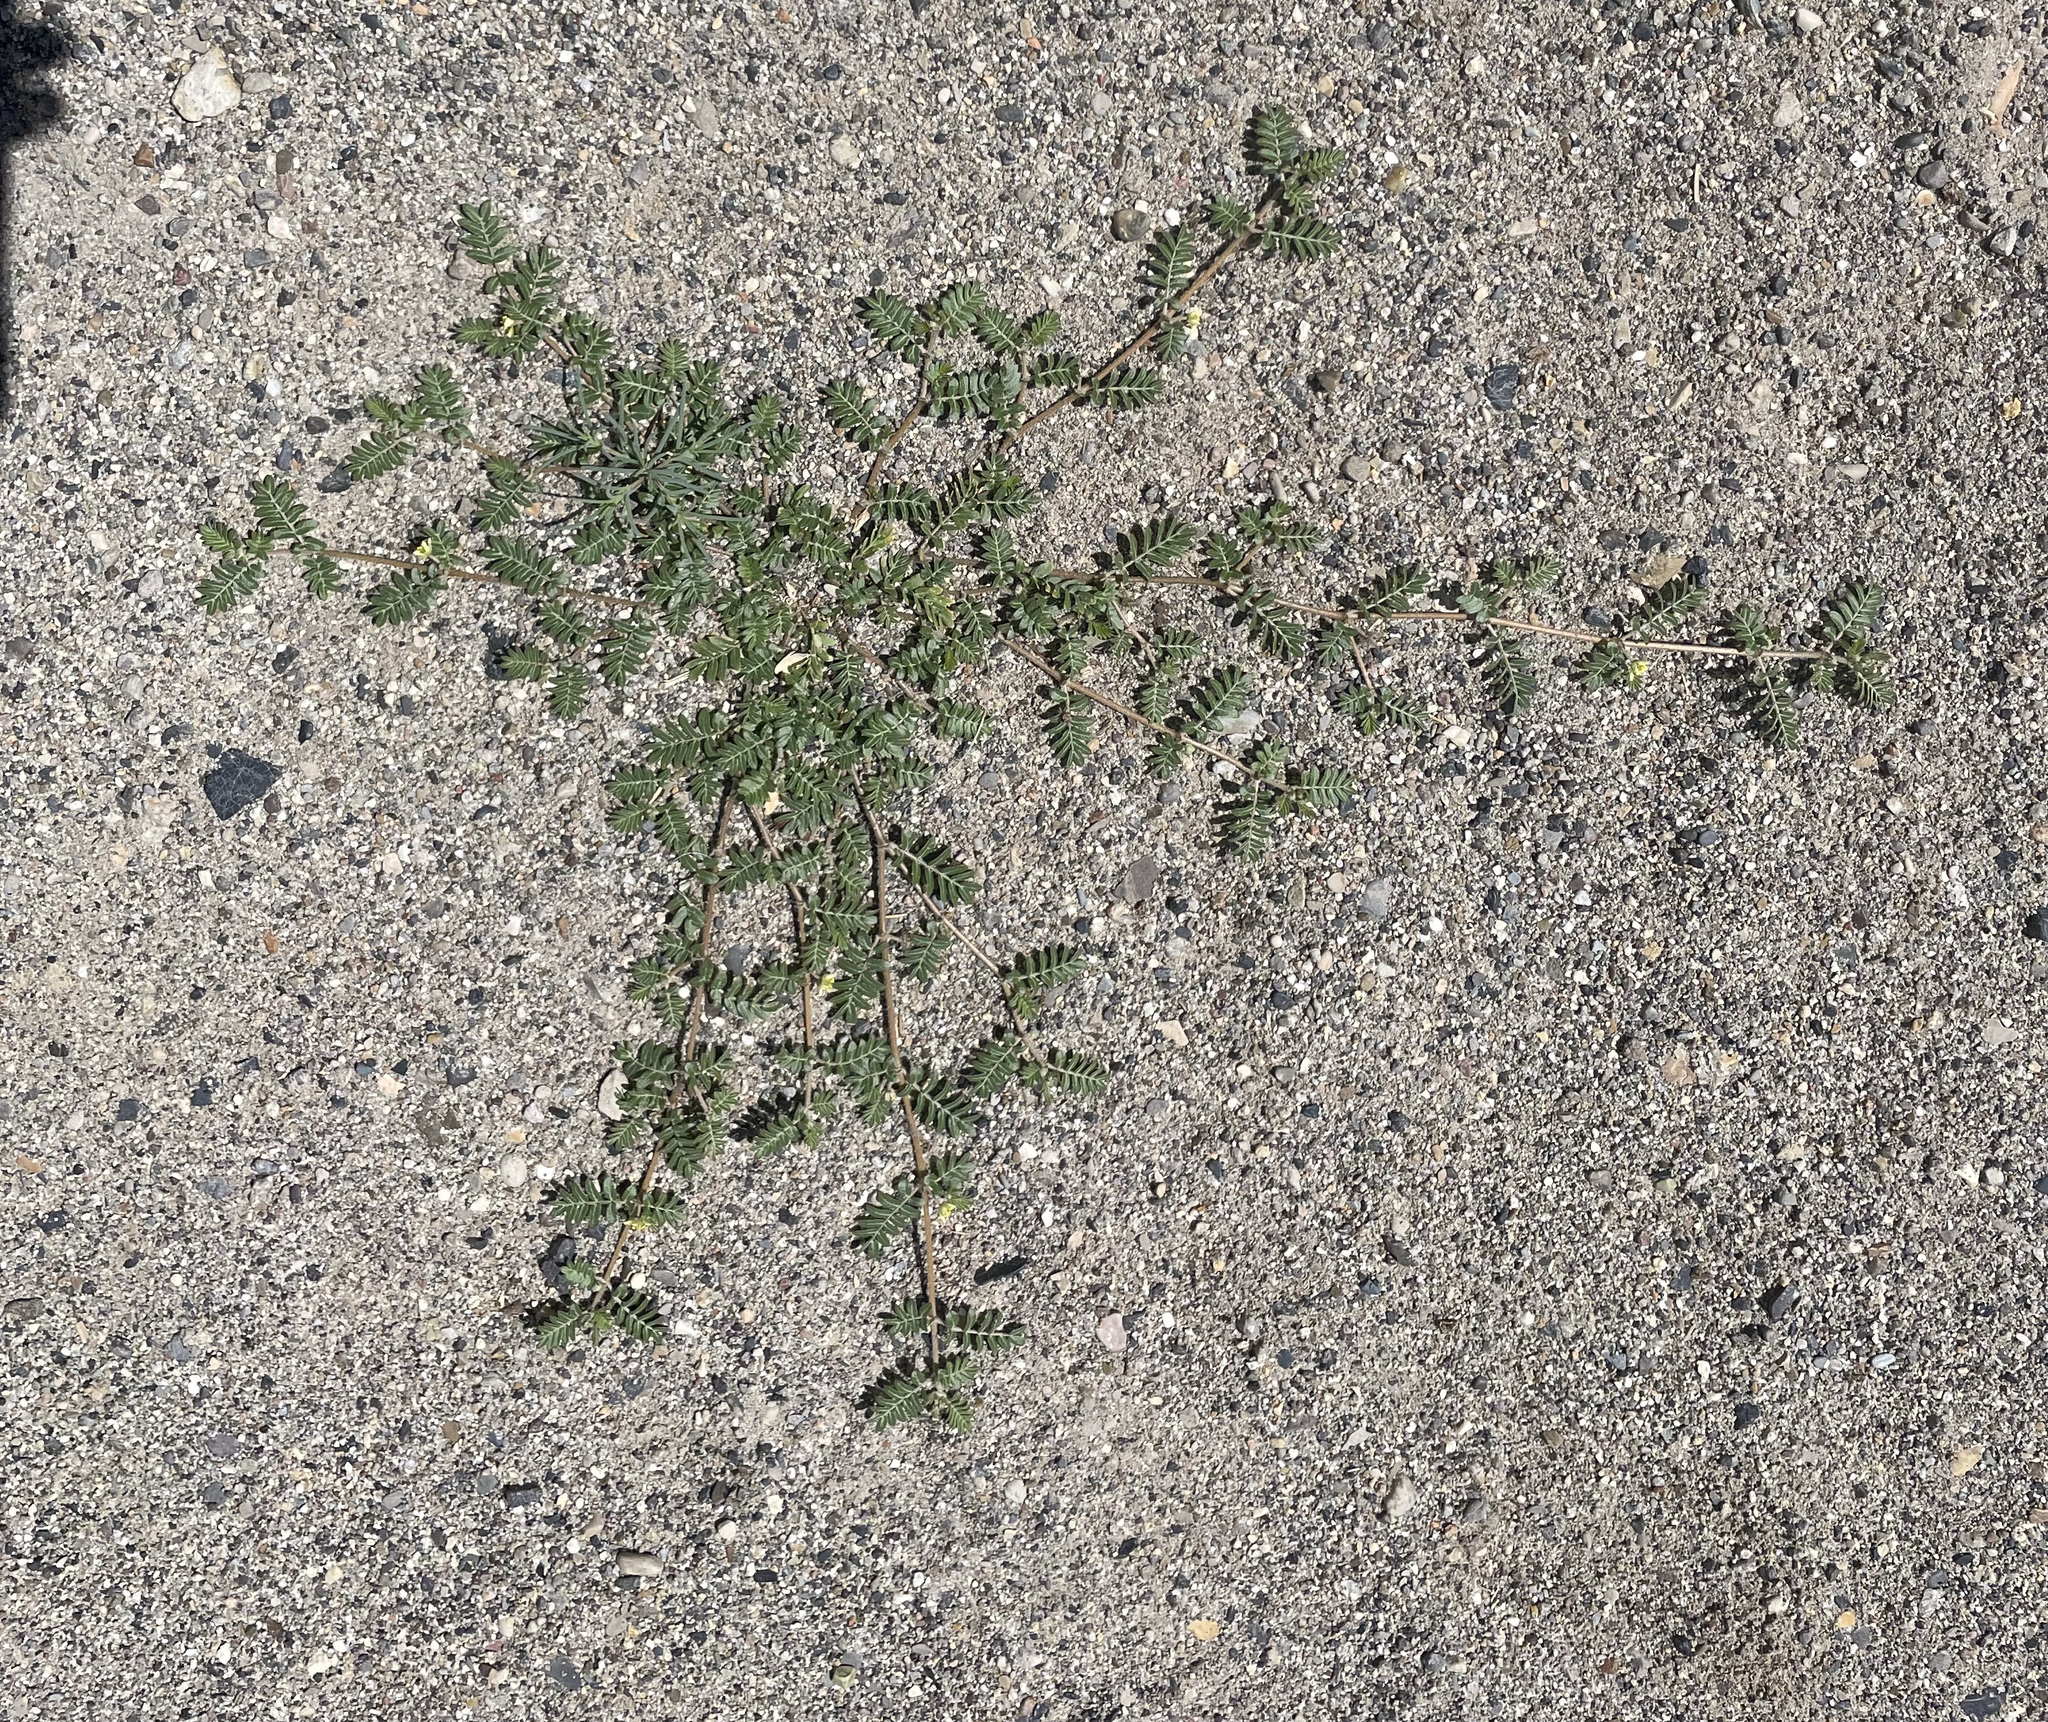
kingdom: Plantae
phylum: Tracheophyta
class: Magnoliopsida
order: Zygophyllales
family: Zygophyllaceae
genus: Tribulus
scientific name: Tribulus terrestris
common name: Puncturevine
